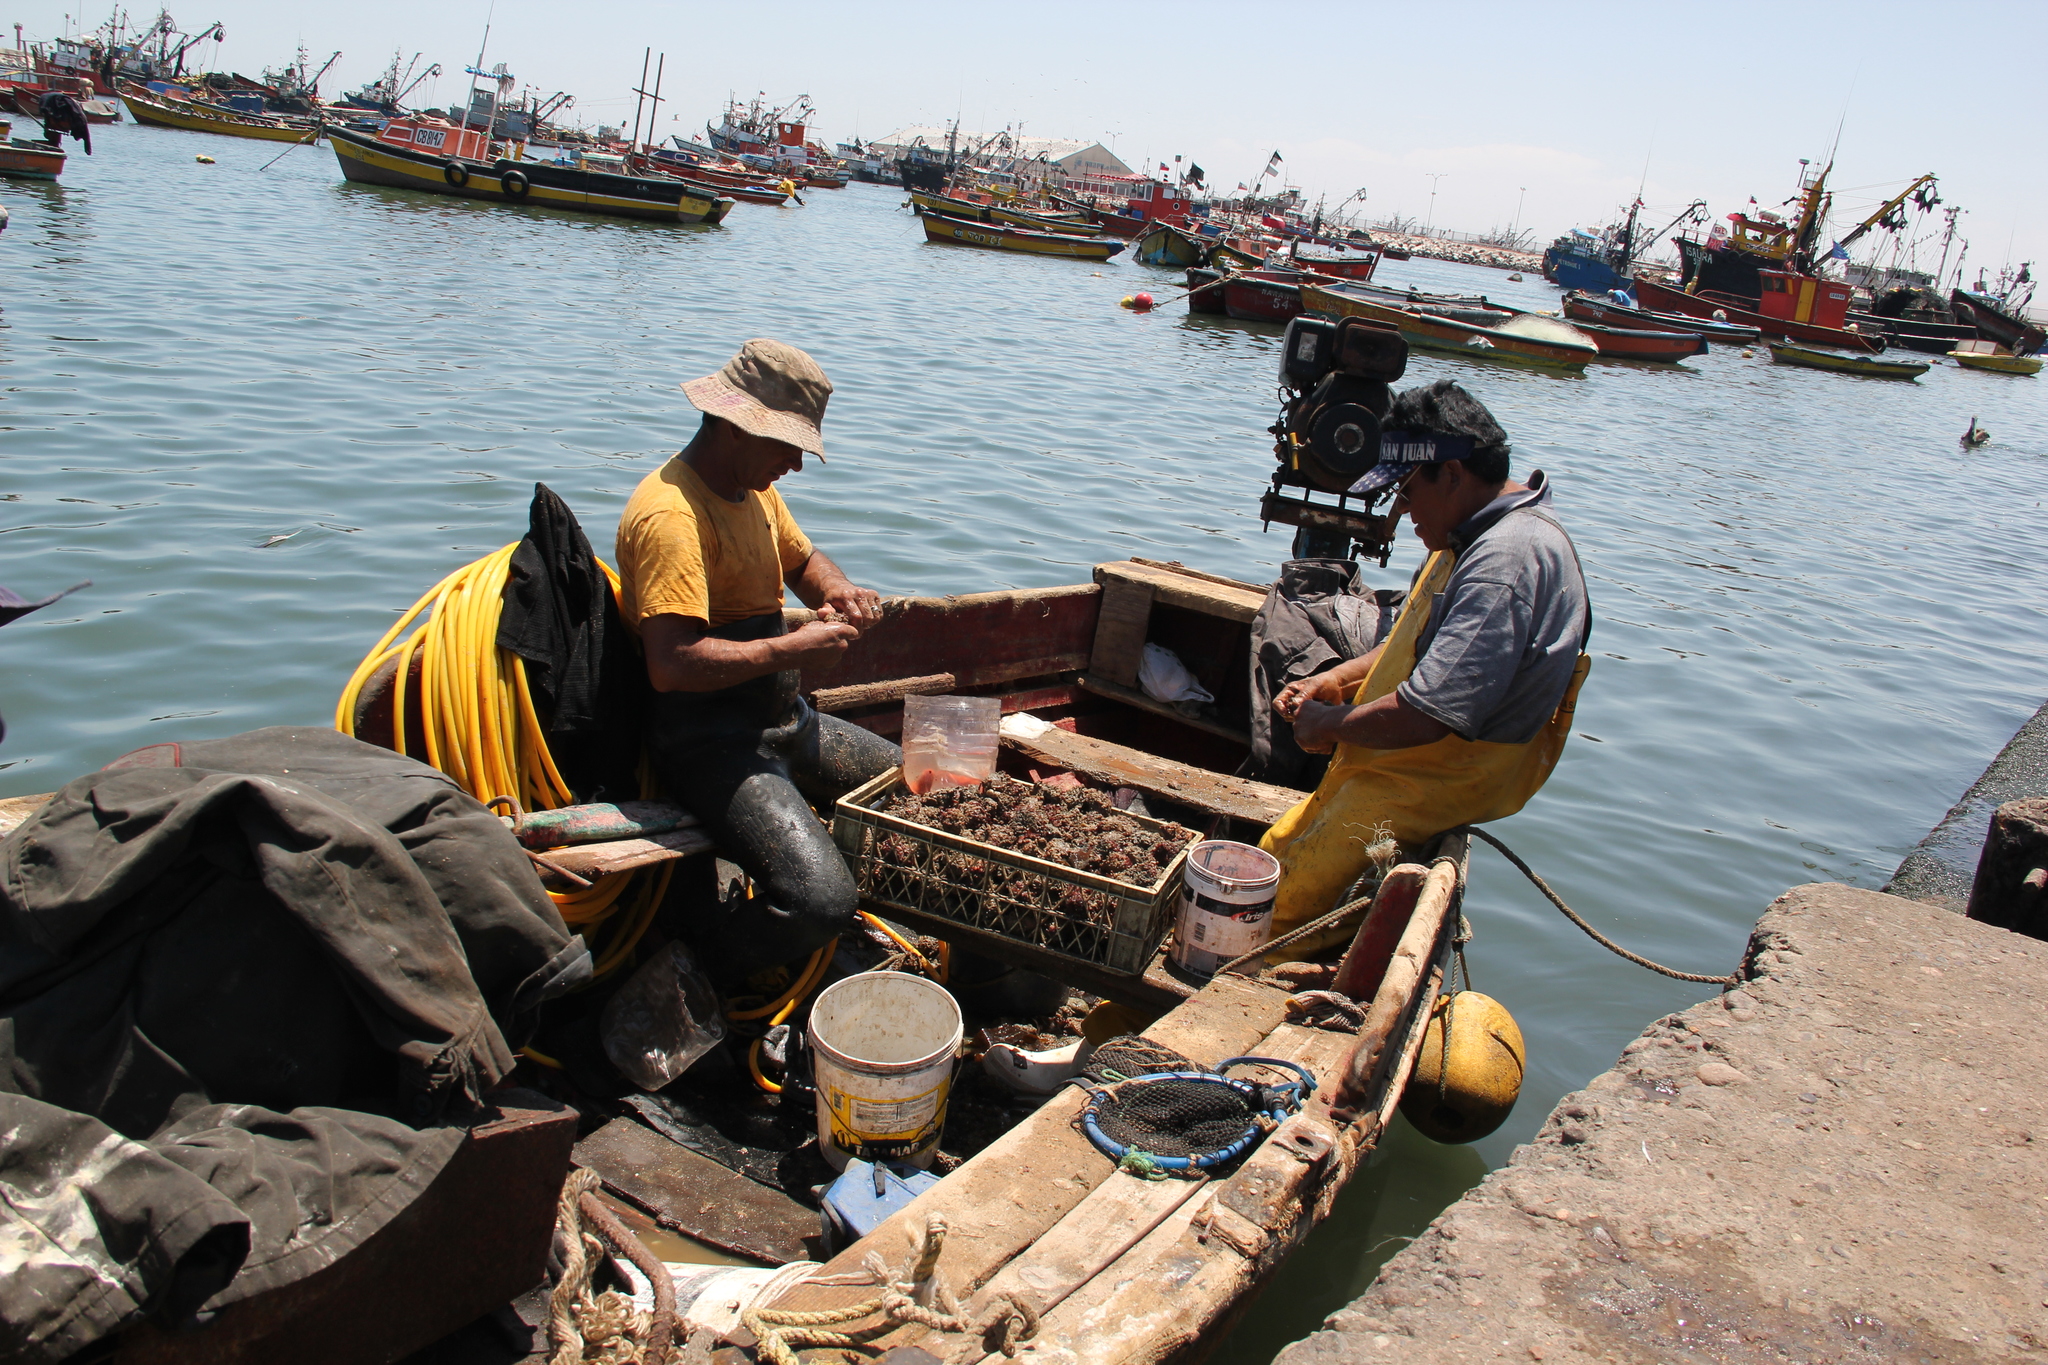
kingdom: Animalia
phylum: Echinodermata
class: Echinoidea
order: Camarodonta
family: Parechinidae
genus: Loxechinus
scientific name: Loxechinus albus
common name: Chilean sea urchin
